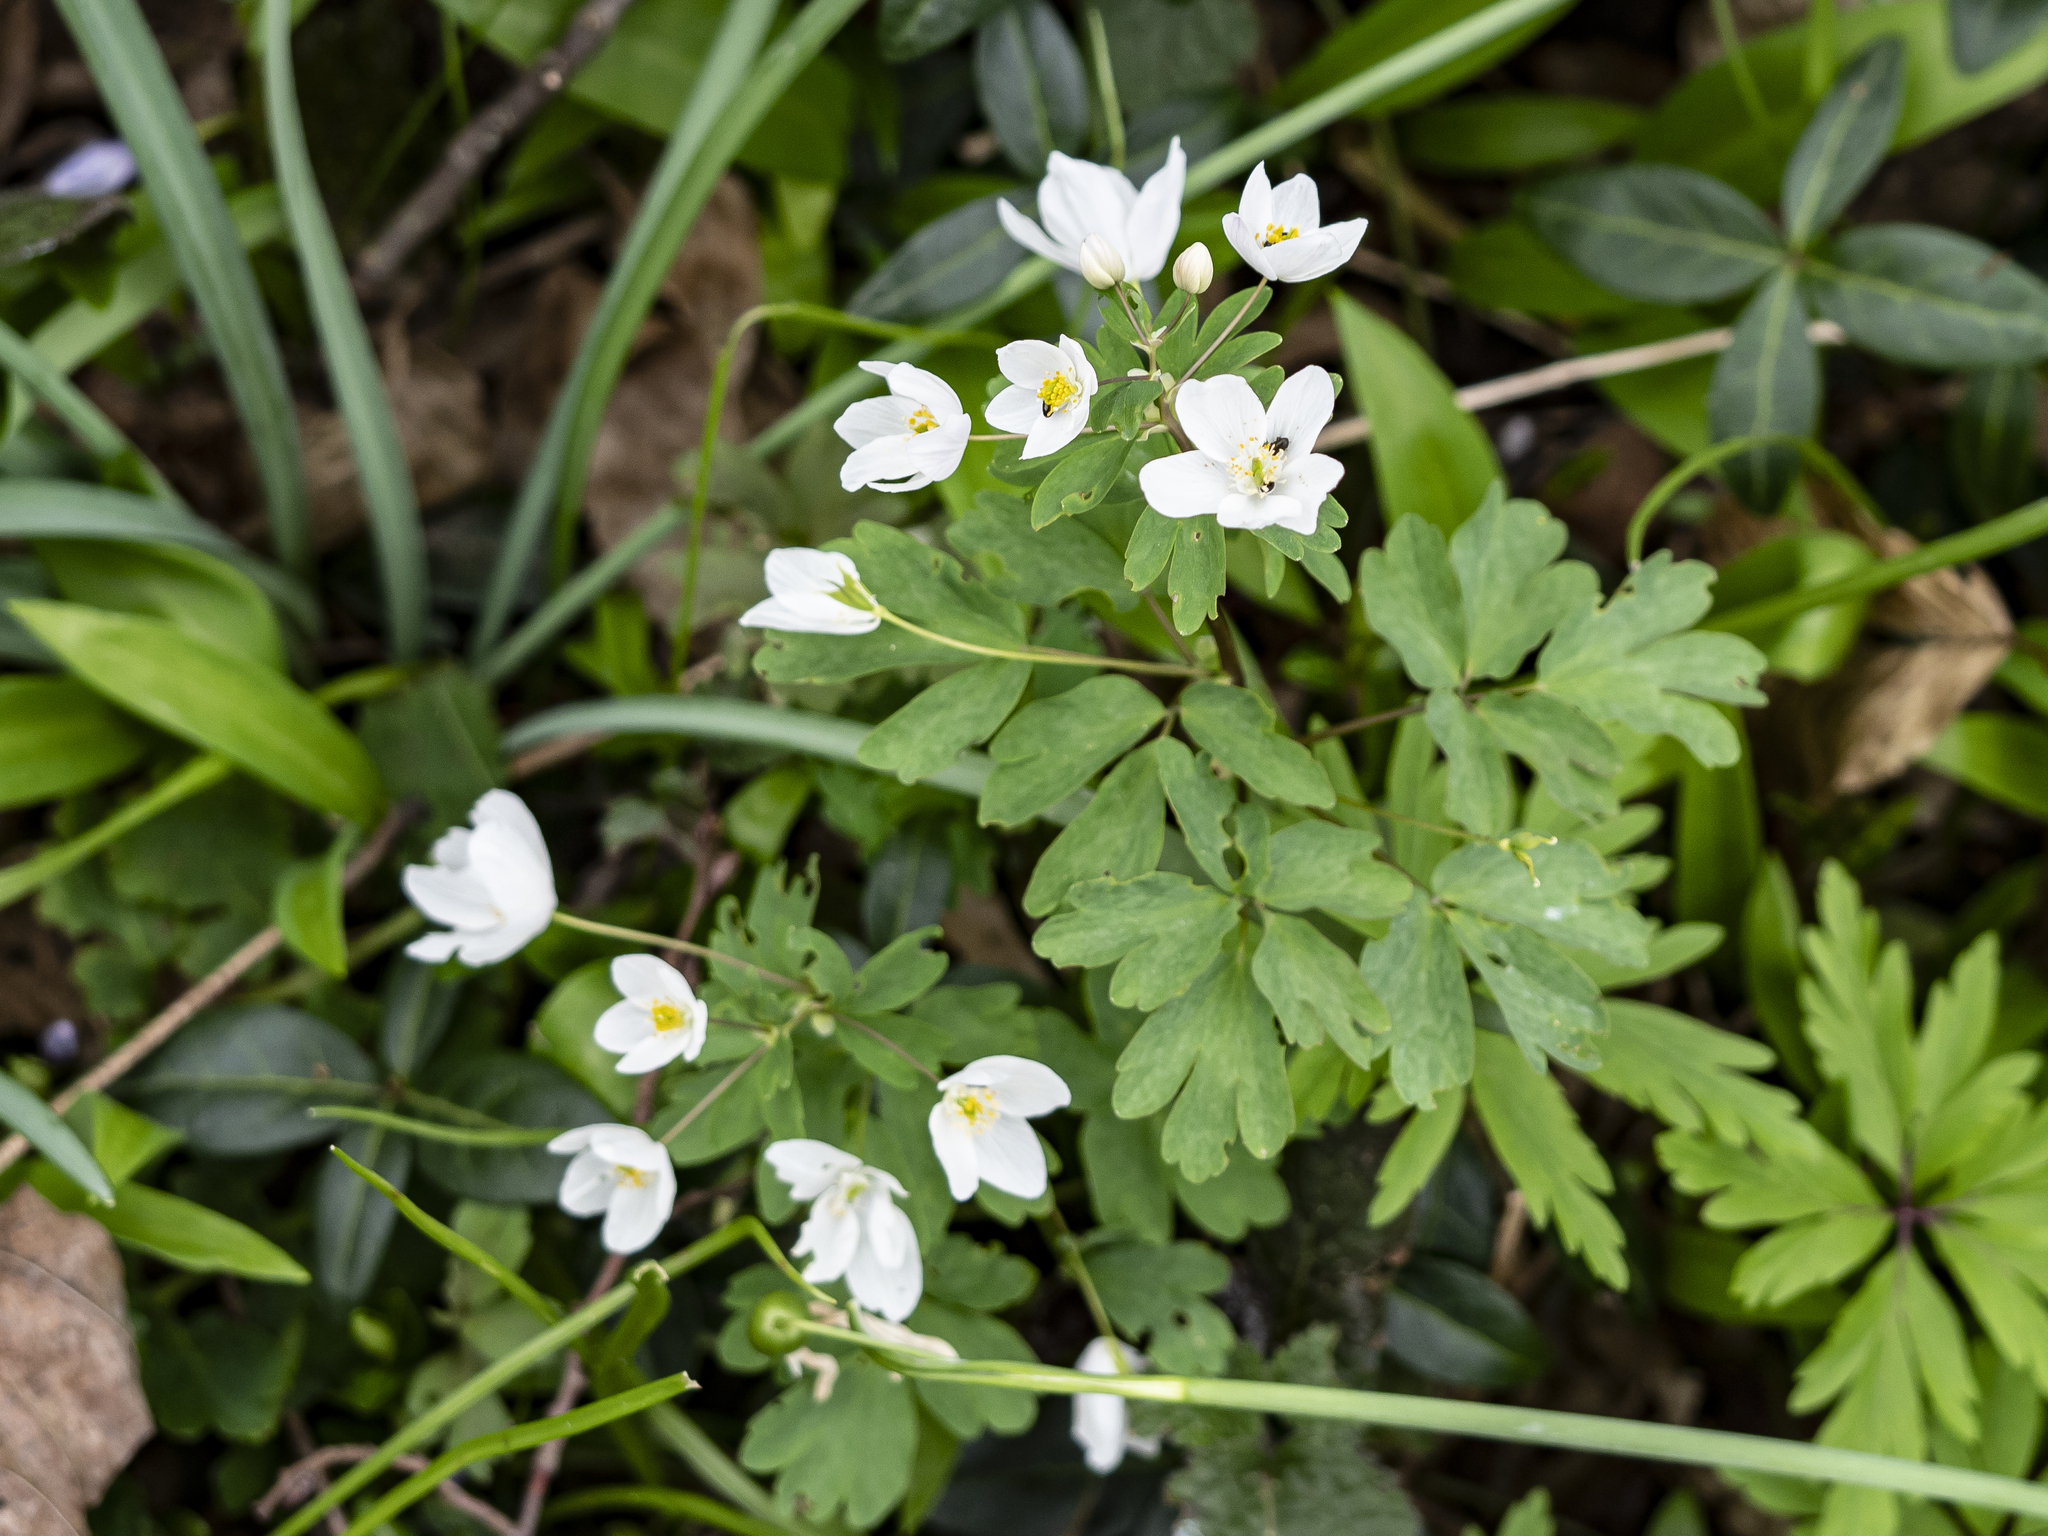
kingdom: Plantae
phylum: Tracheophyta
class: Magnoliopsida
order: Ranunculales
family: Ranunculaceae
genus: Isopyrum
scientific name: Isopyrum thalictroides
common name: Isopyrum
